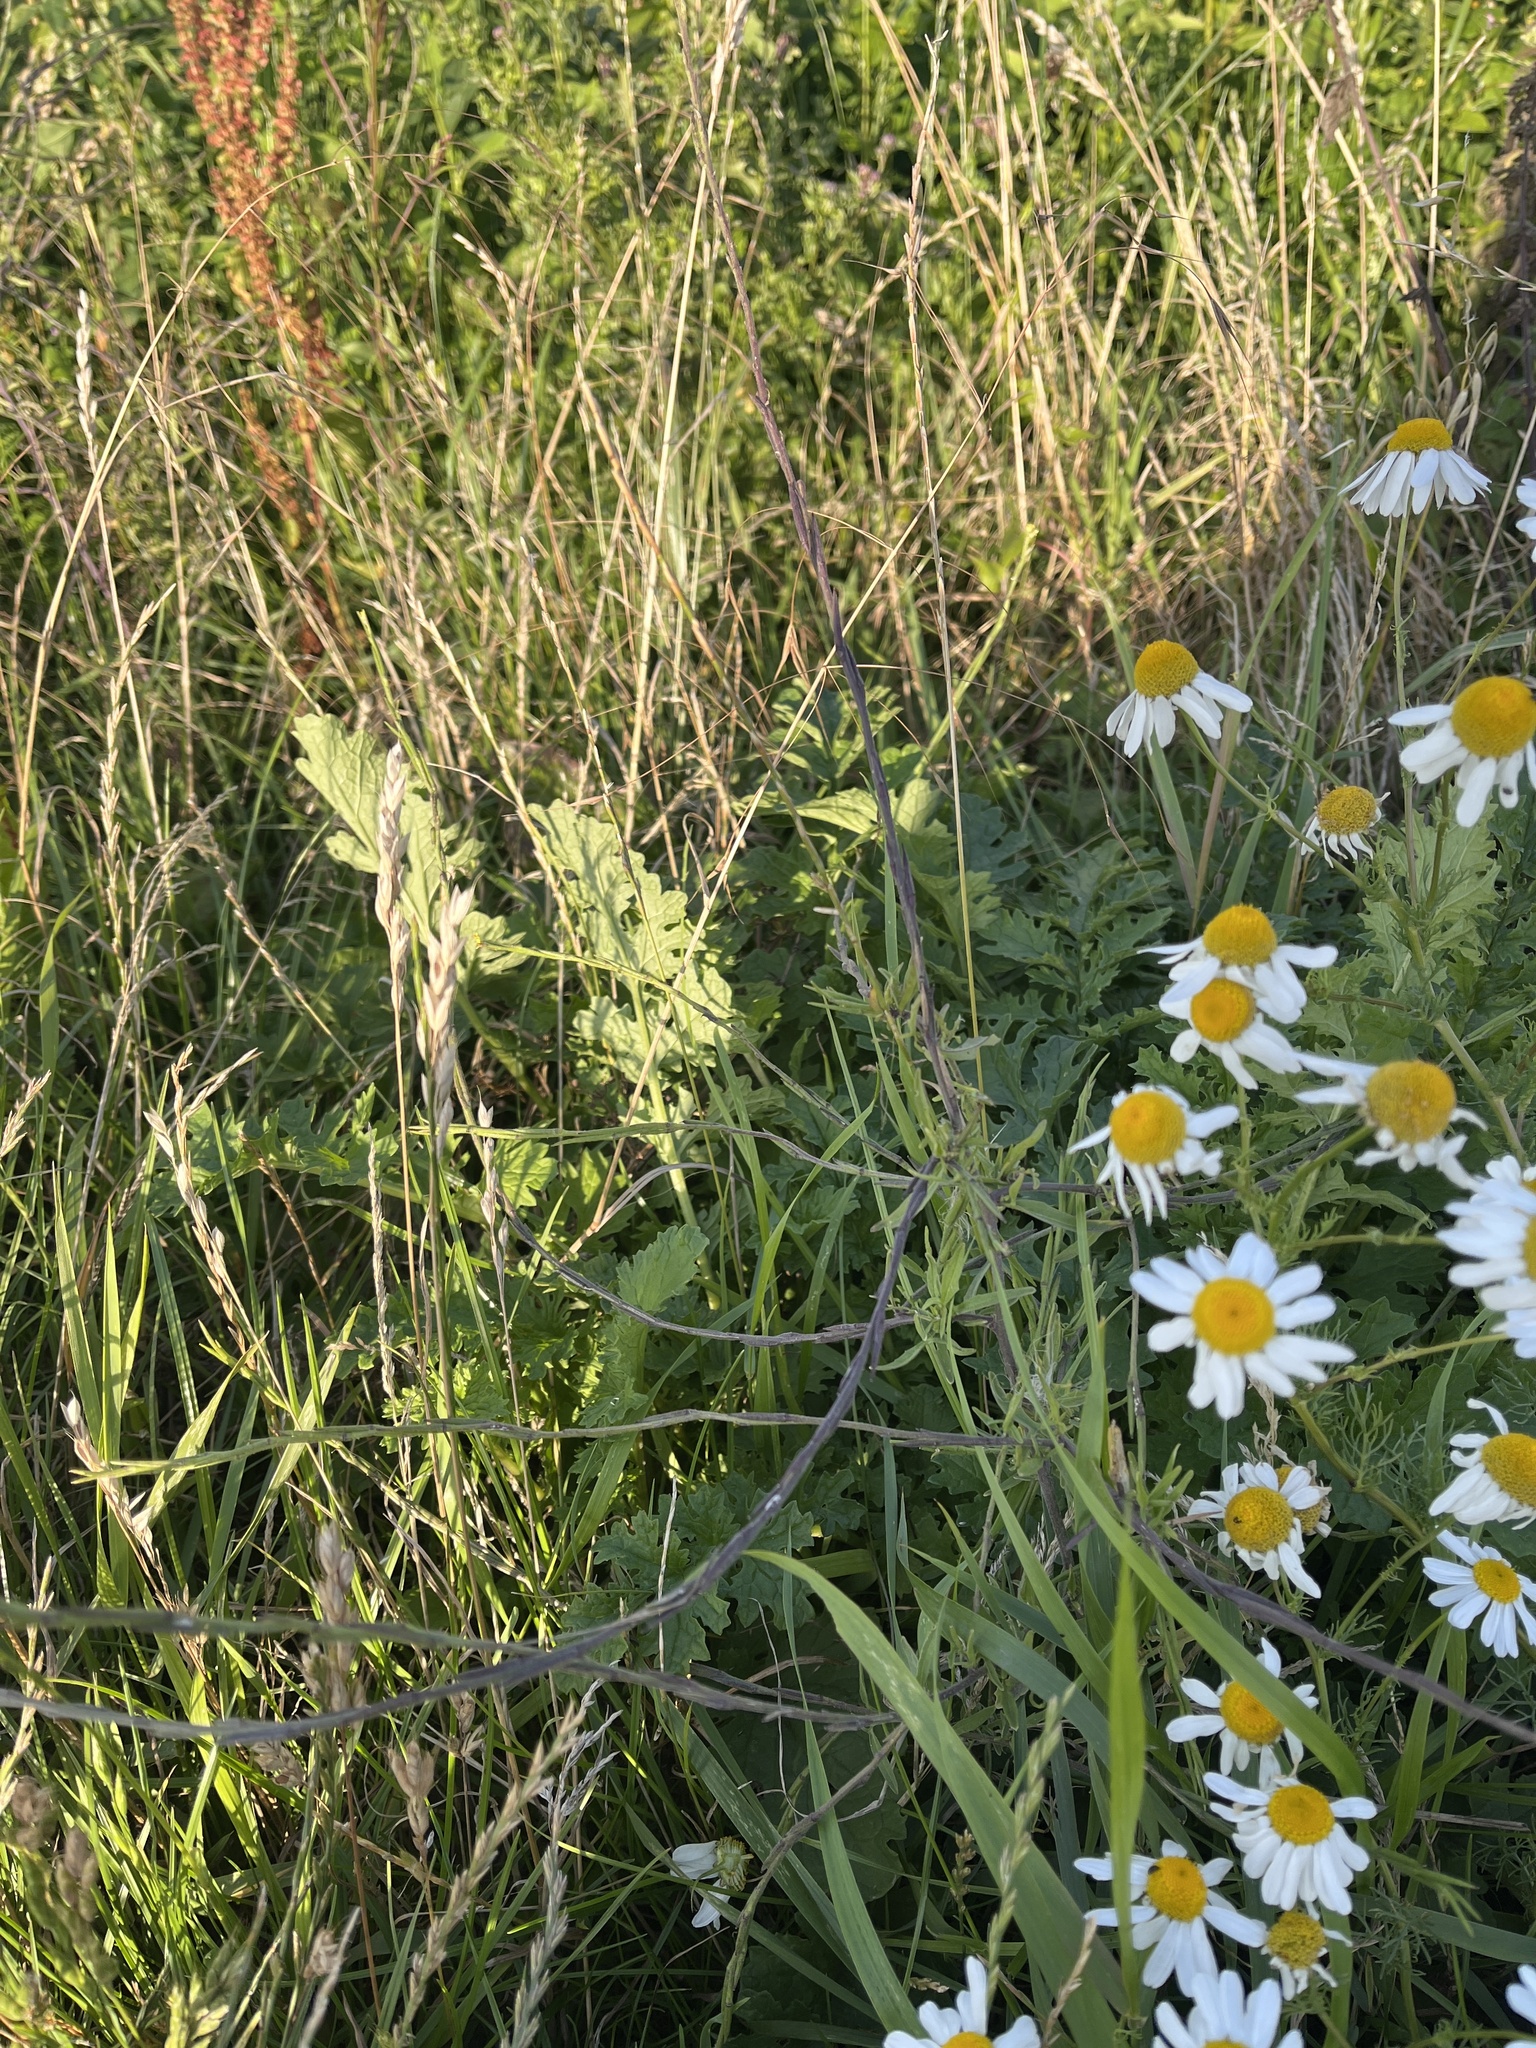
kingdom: Plantae
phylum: Tracheophyta
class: Magnoliopsida
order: Brassicales
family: Brassicaceae
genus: Sisymbrium
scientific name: Sisymbrium officinale
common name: Hedge mustard
